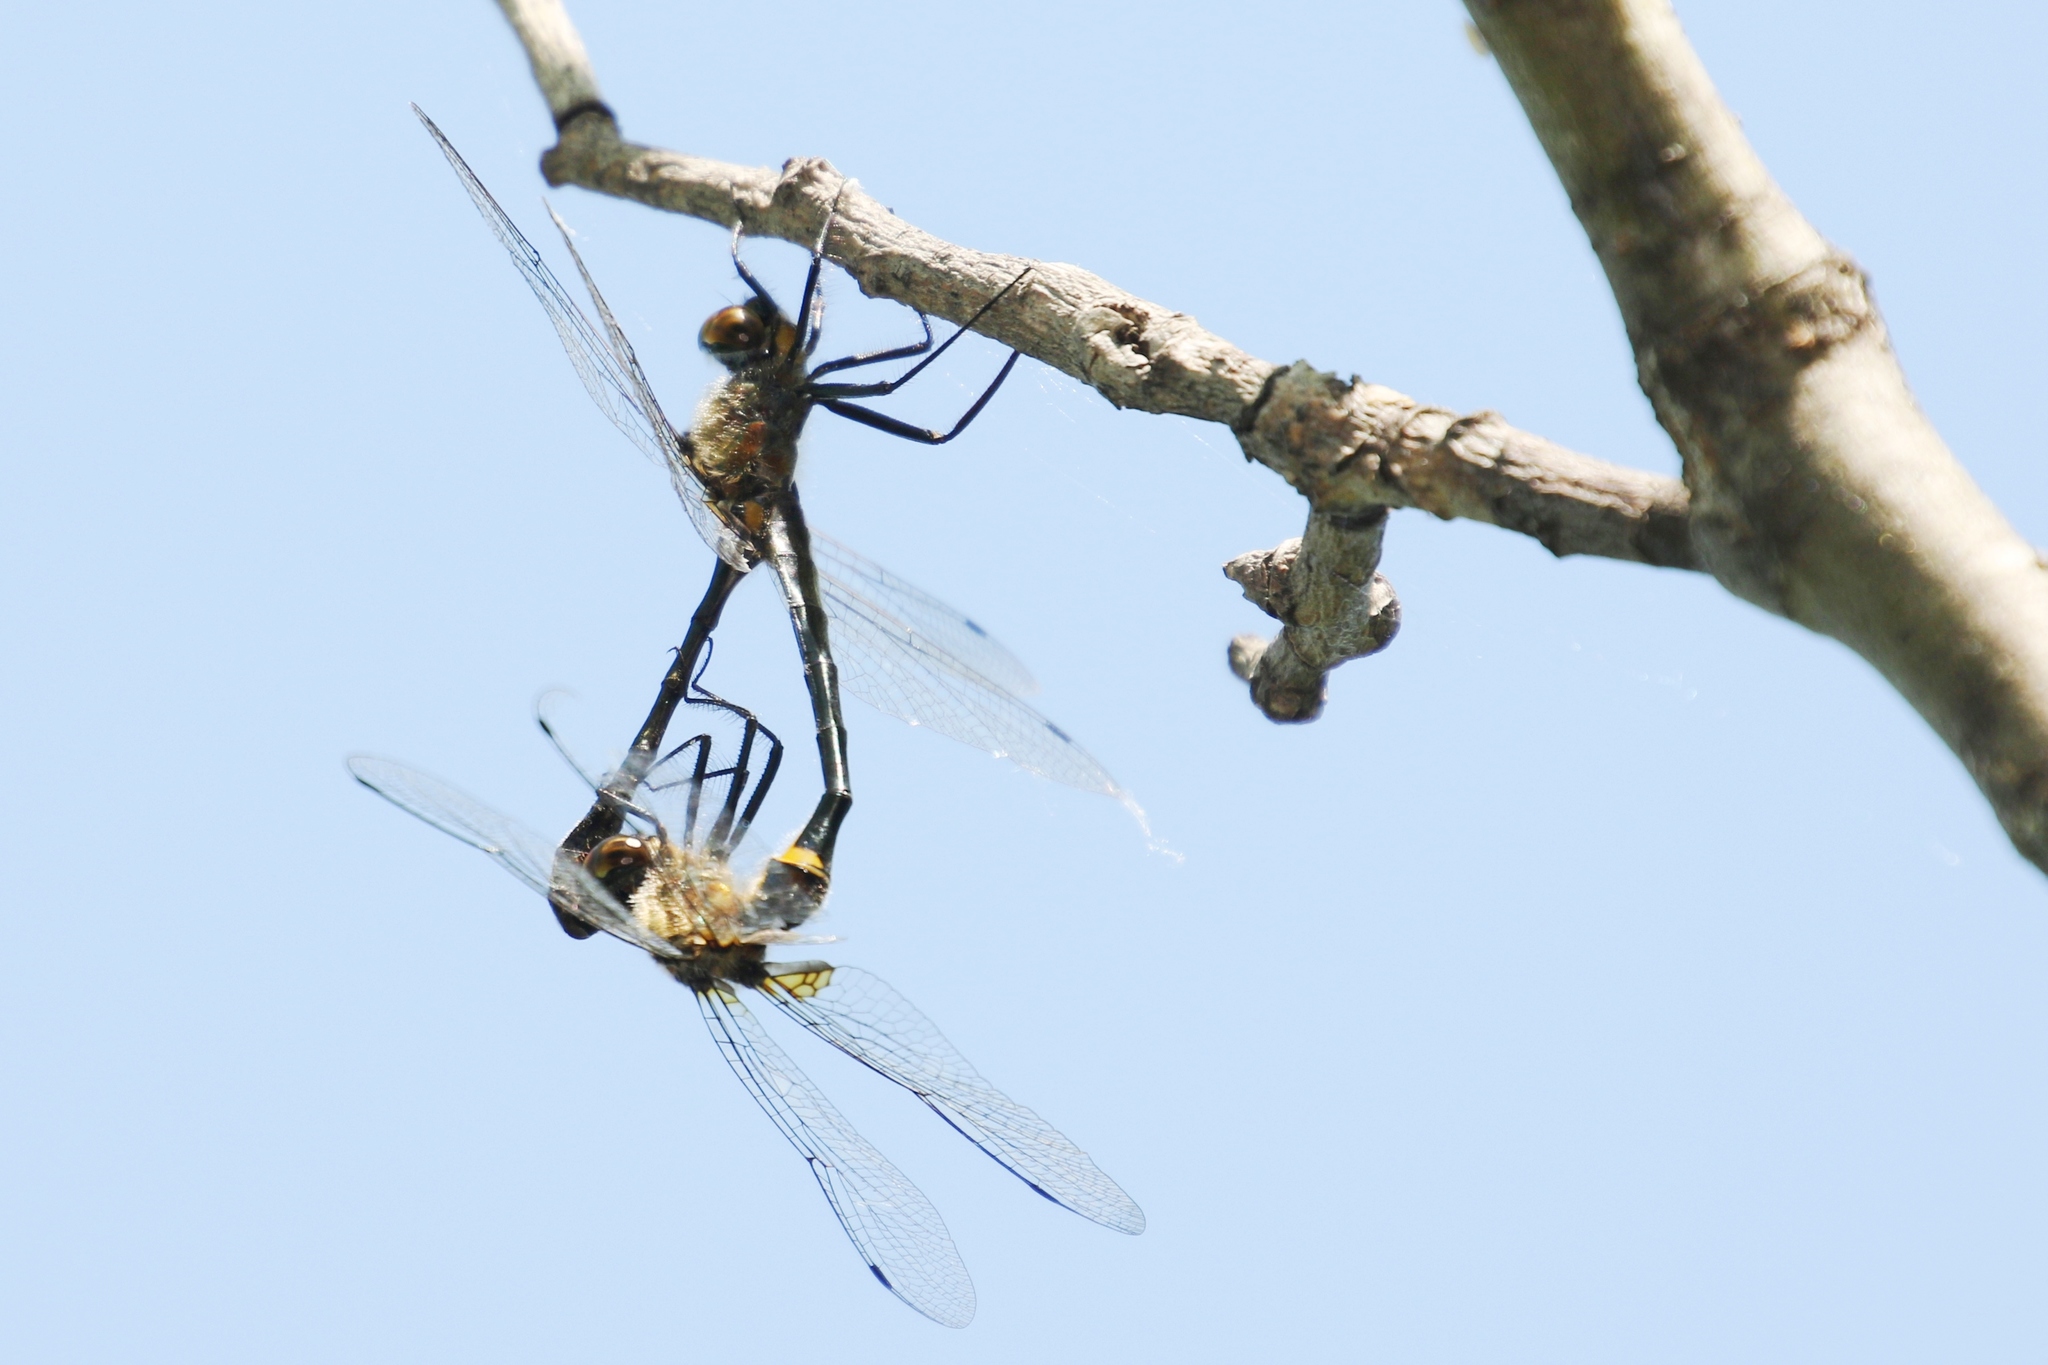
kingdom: Animalia
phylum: Arthropoda
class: Insecta
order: Odonata
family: Corduliidae
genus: Dorocordulia
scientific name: Dorocordulia libera
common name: Racket-tailed emerald
